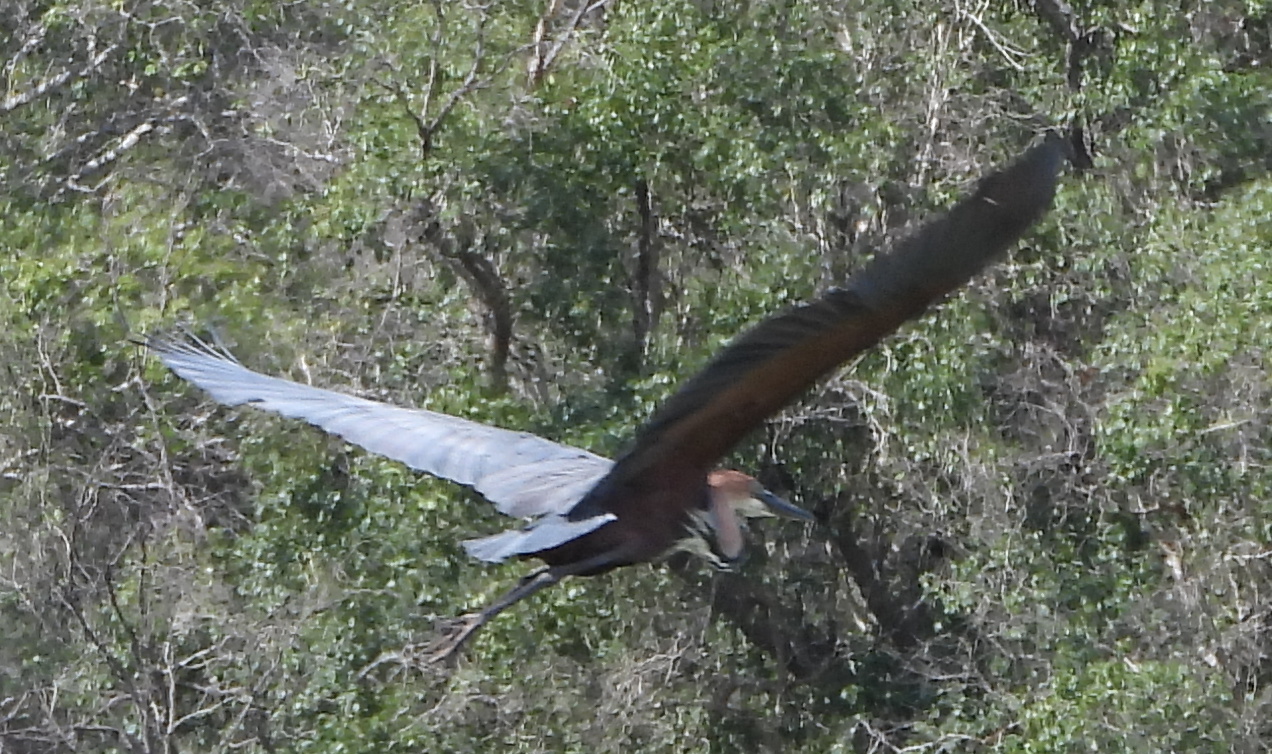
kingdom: Animalia
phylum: Chordata
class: Aves
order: Pelecaniformes
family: Ardeidae
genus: Ardea
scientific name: Ardea goliath
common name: Goliath heron
